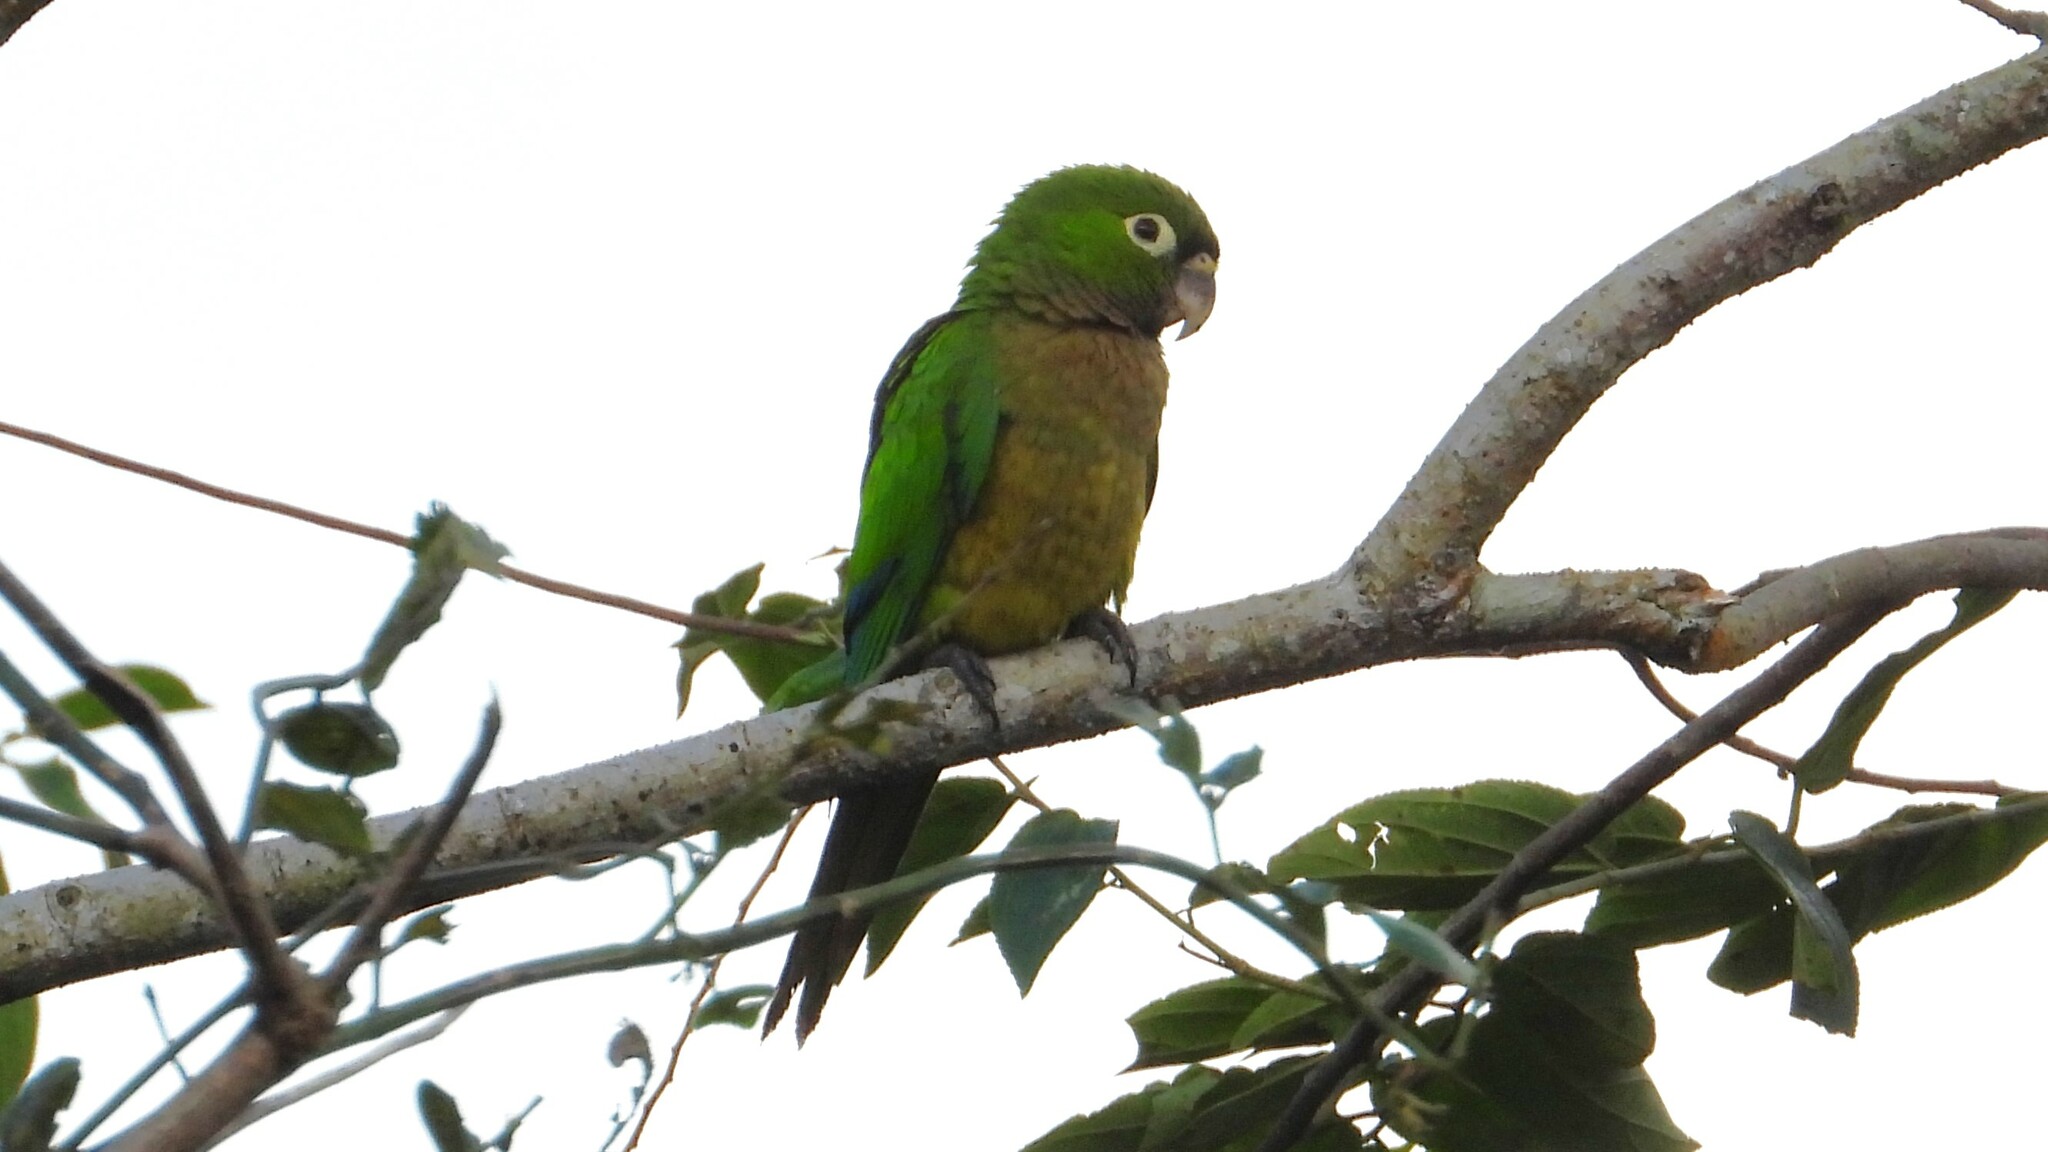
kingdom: Animalia
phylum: Chordata
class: Aves
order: Psittaciformes
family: Psittacidae
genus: Aratinga
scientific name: Aratinga nana
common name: Olive-throated parakeet
